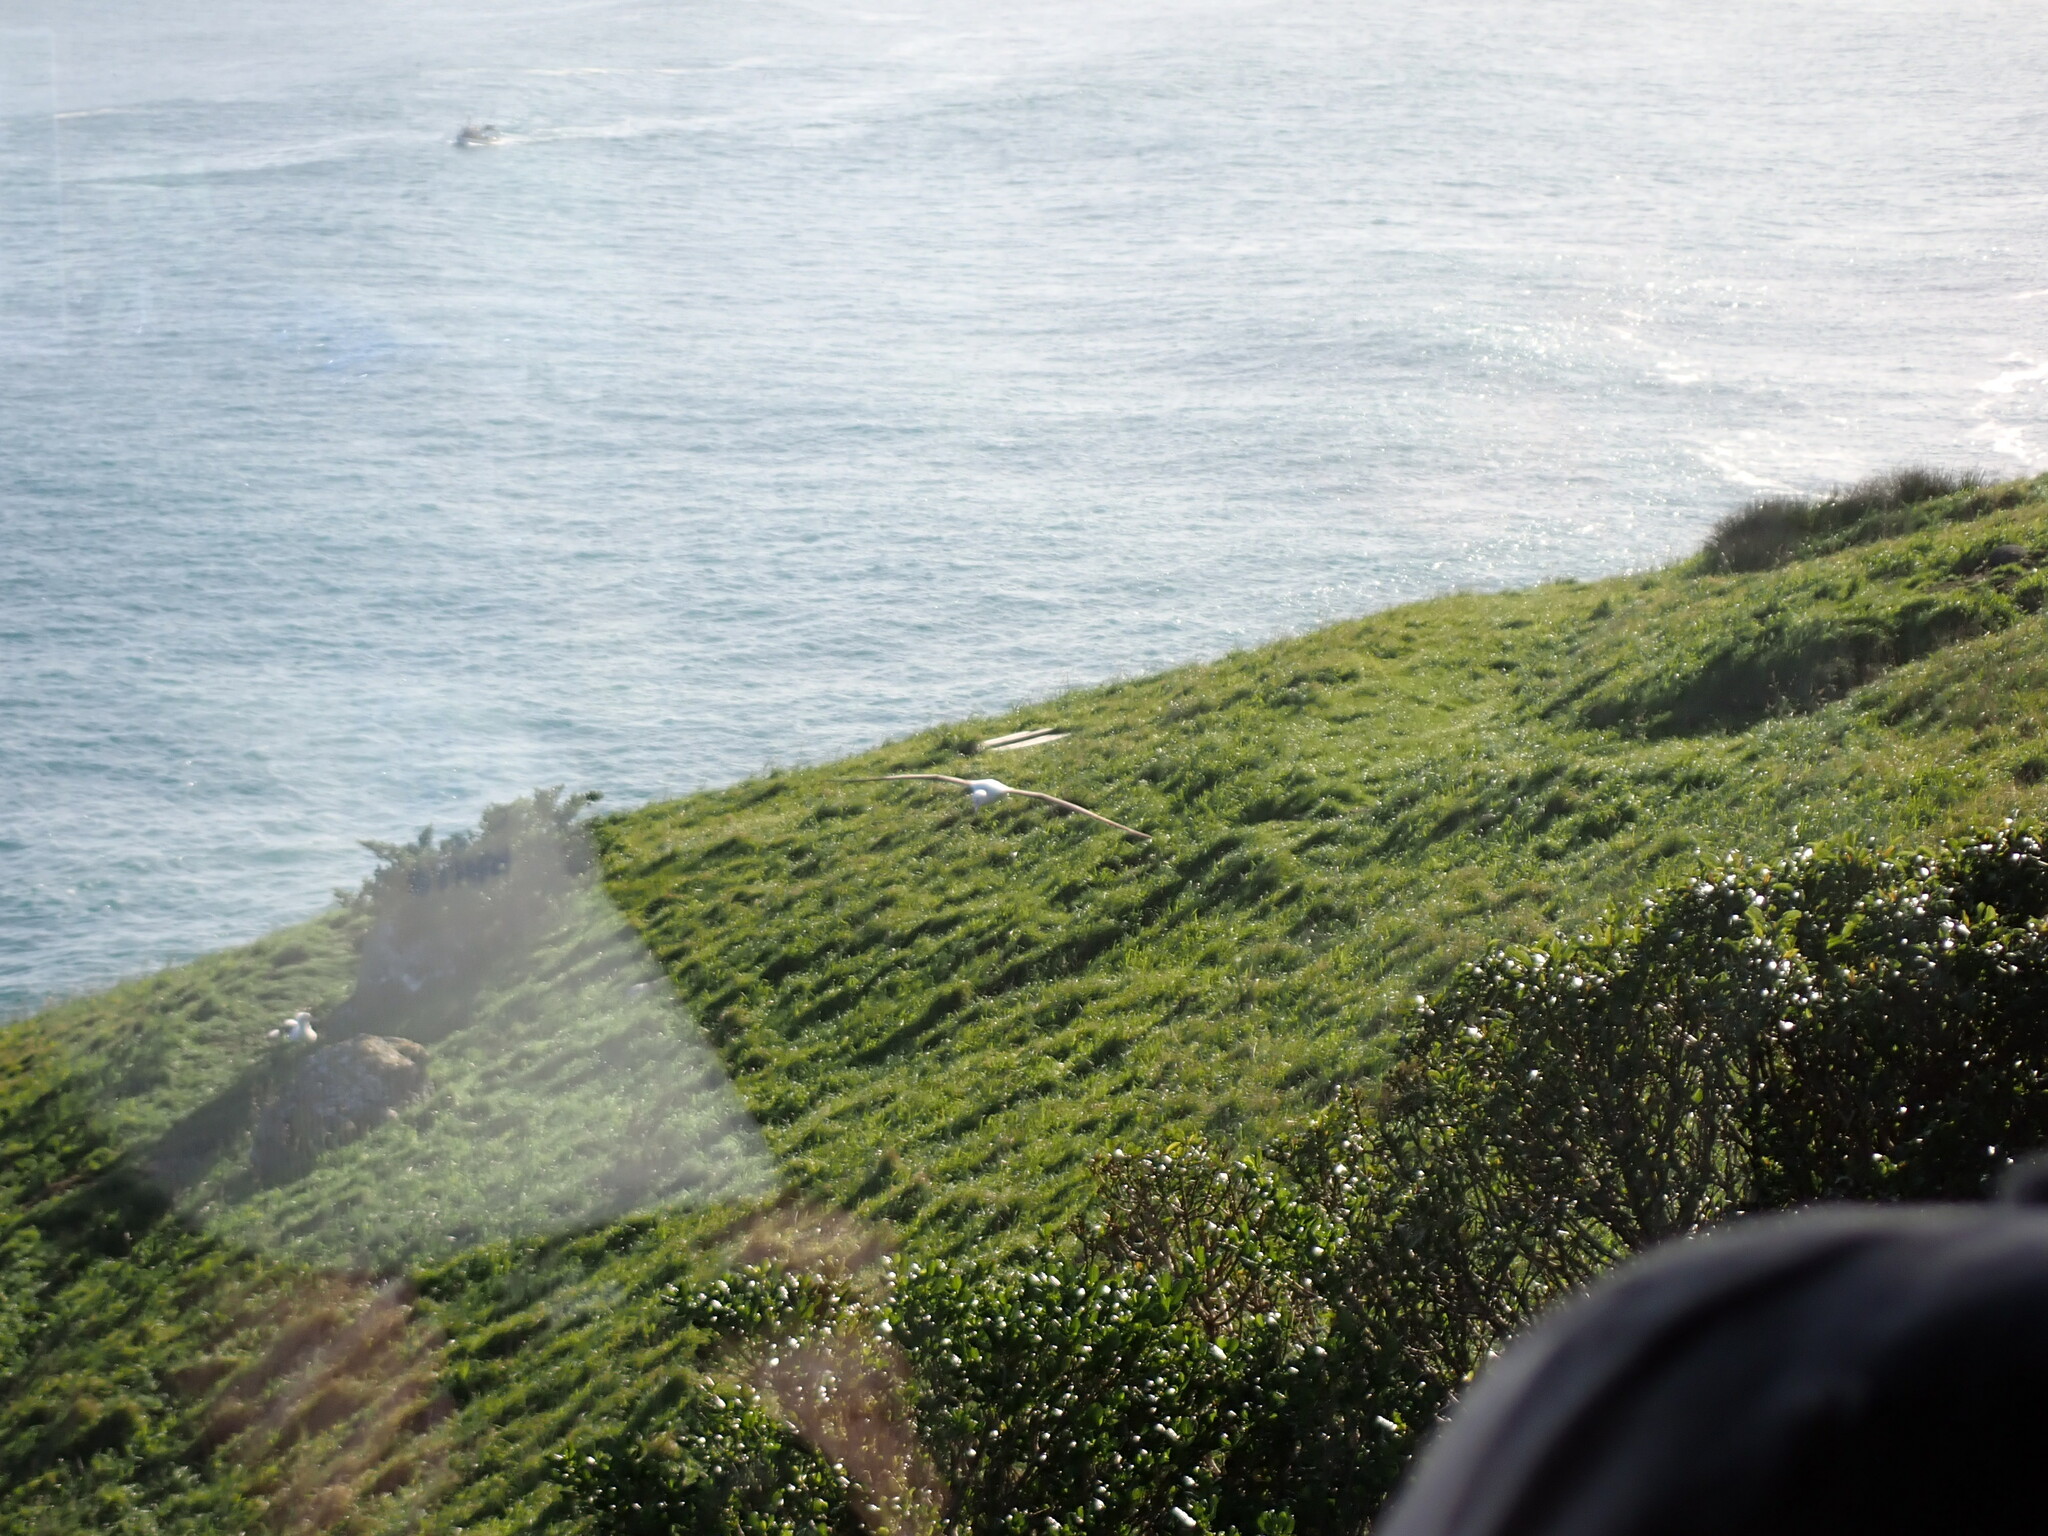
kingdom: Animalia
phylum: Chordata
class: Aves
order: Procellariiformes
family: Diomedeidae
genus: Diomedea
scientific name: Diomedea sanfordi
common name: Northern royal albatross
